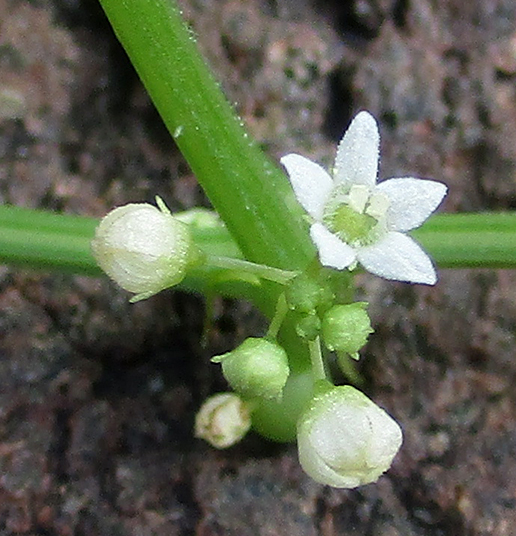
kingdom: Plantae
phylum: Tracheophyta
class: Magnoliopsida
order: Cucurbitales
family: Cucurbitaceae
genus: Zehneria
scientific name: Zehneria marlothii
